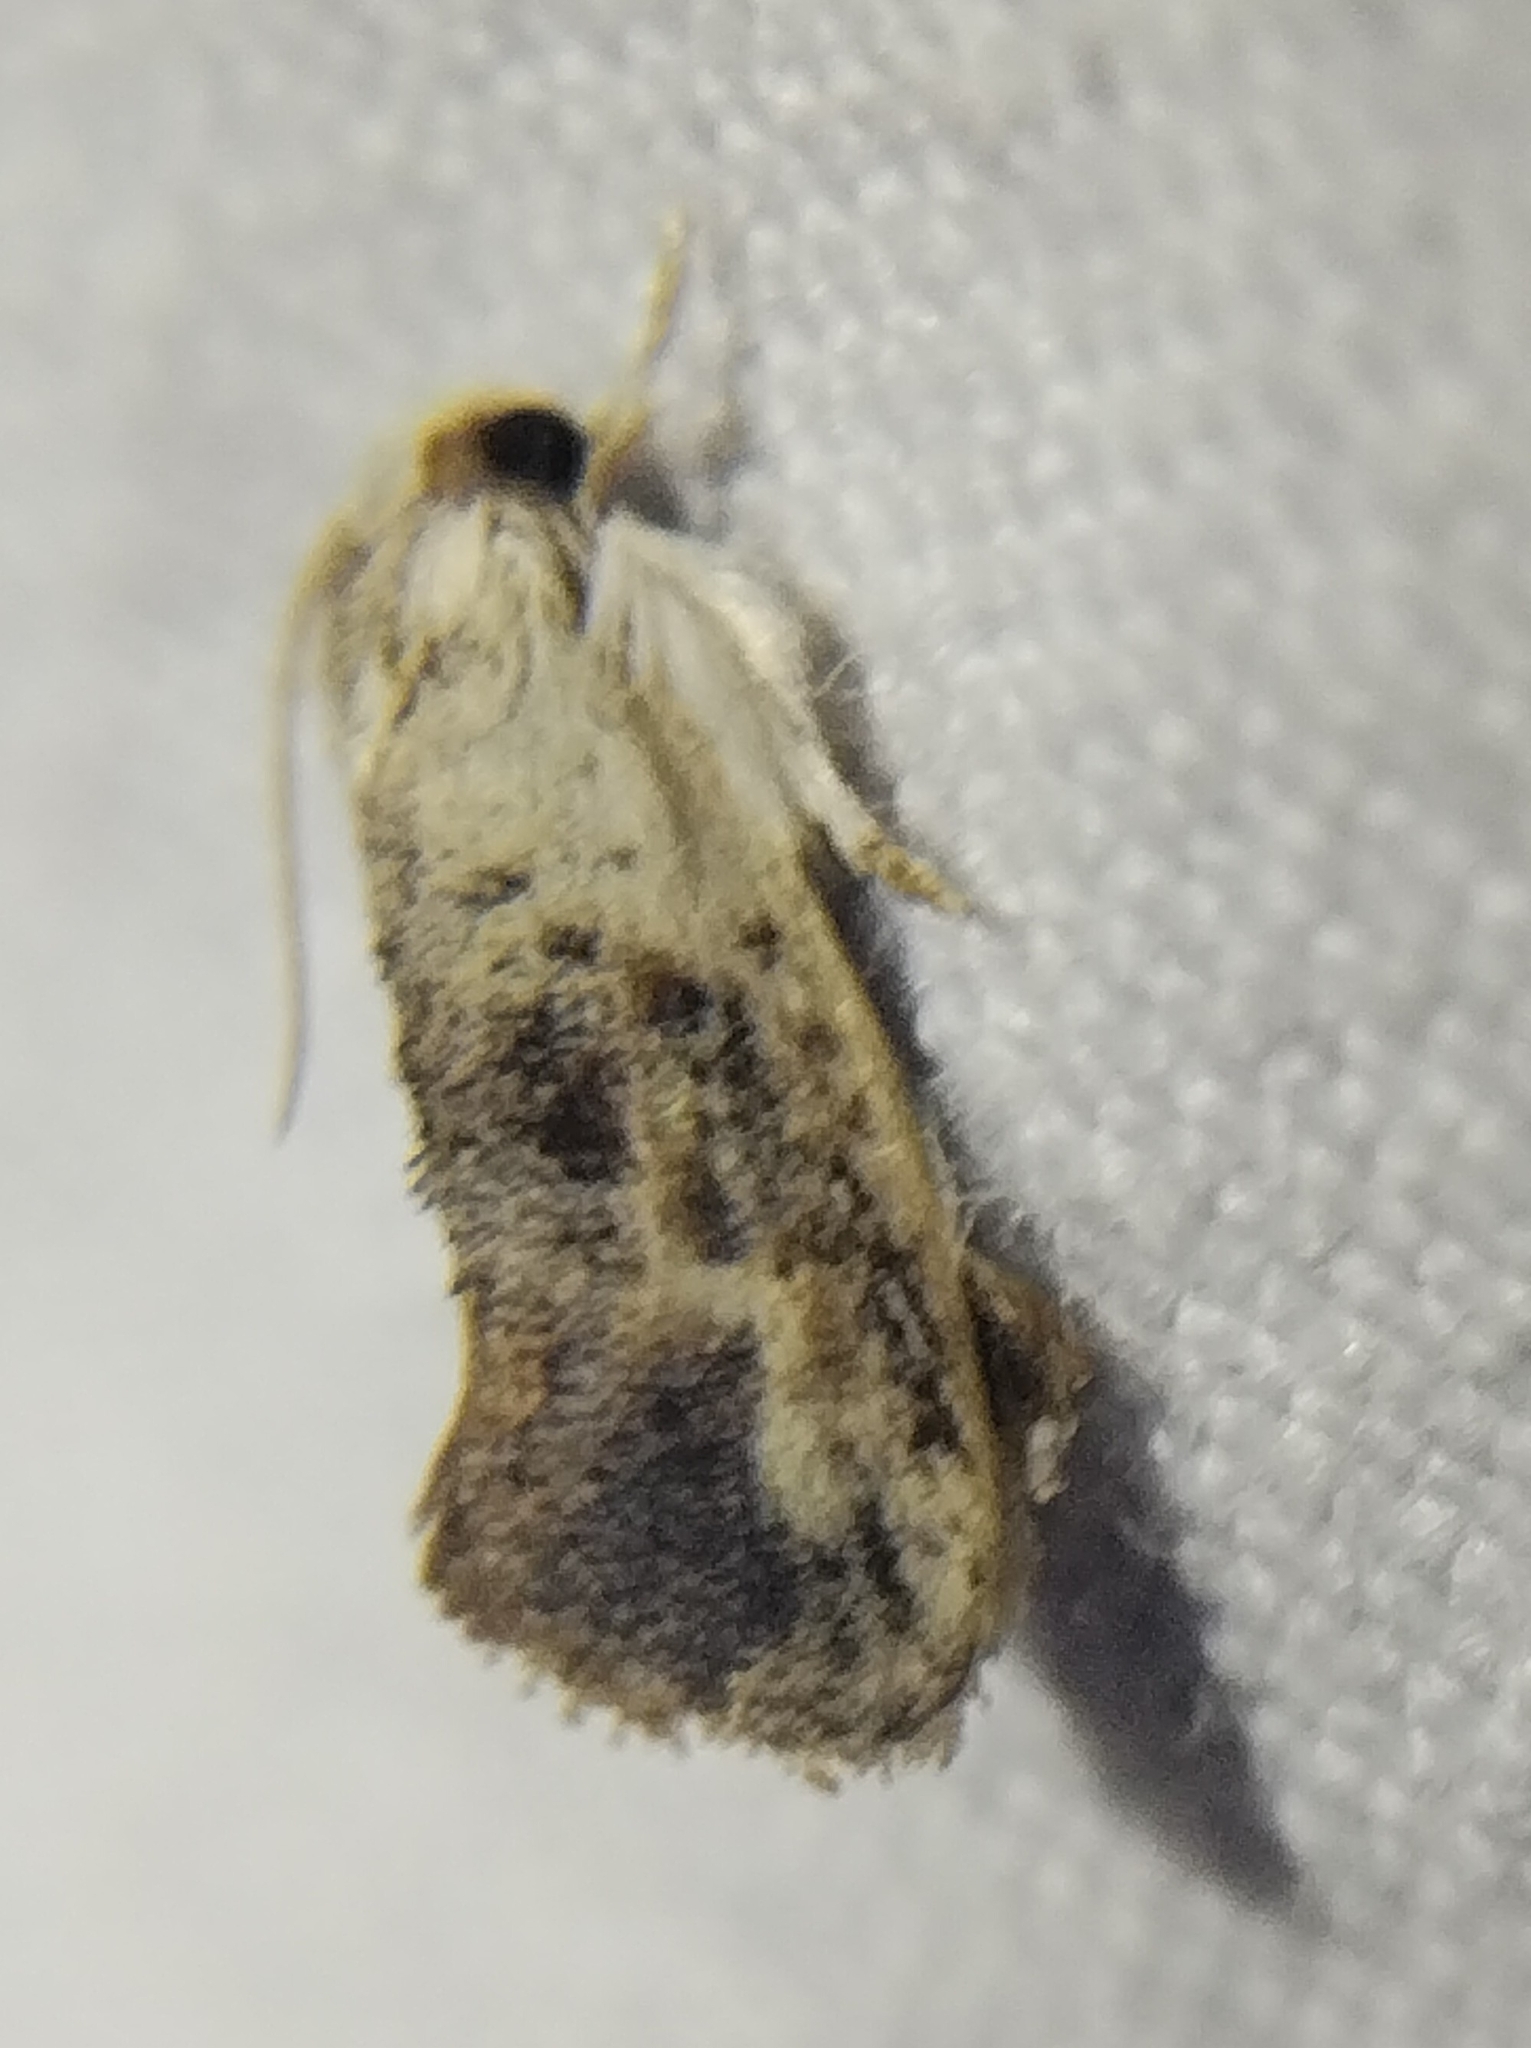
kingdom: Animalia
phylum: Arthropoda
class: Insecta
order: Lepidoptera
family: Tineidae
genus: Acrolophus
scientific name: Acrolophus mycetophagus
